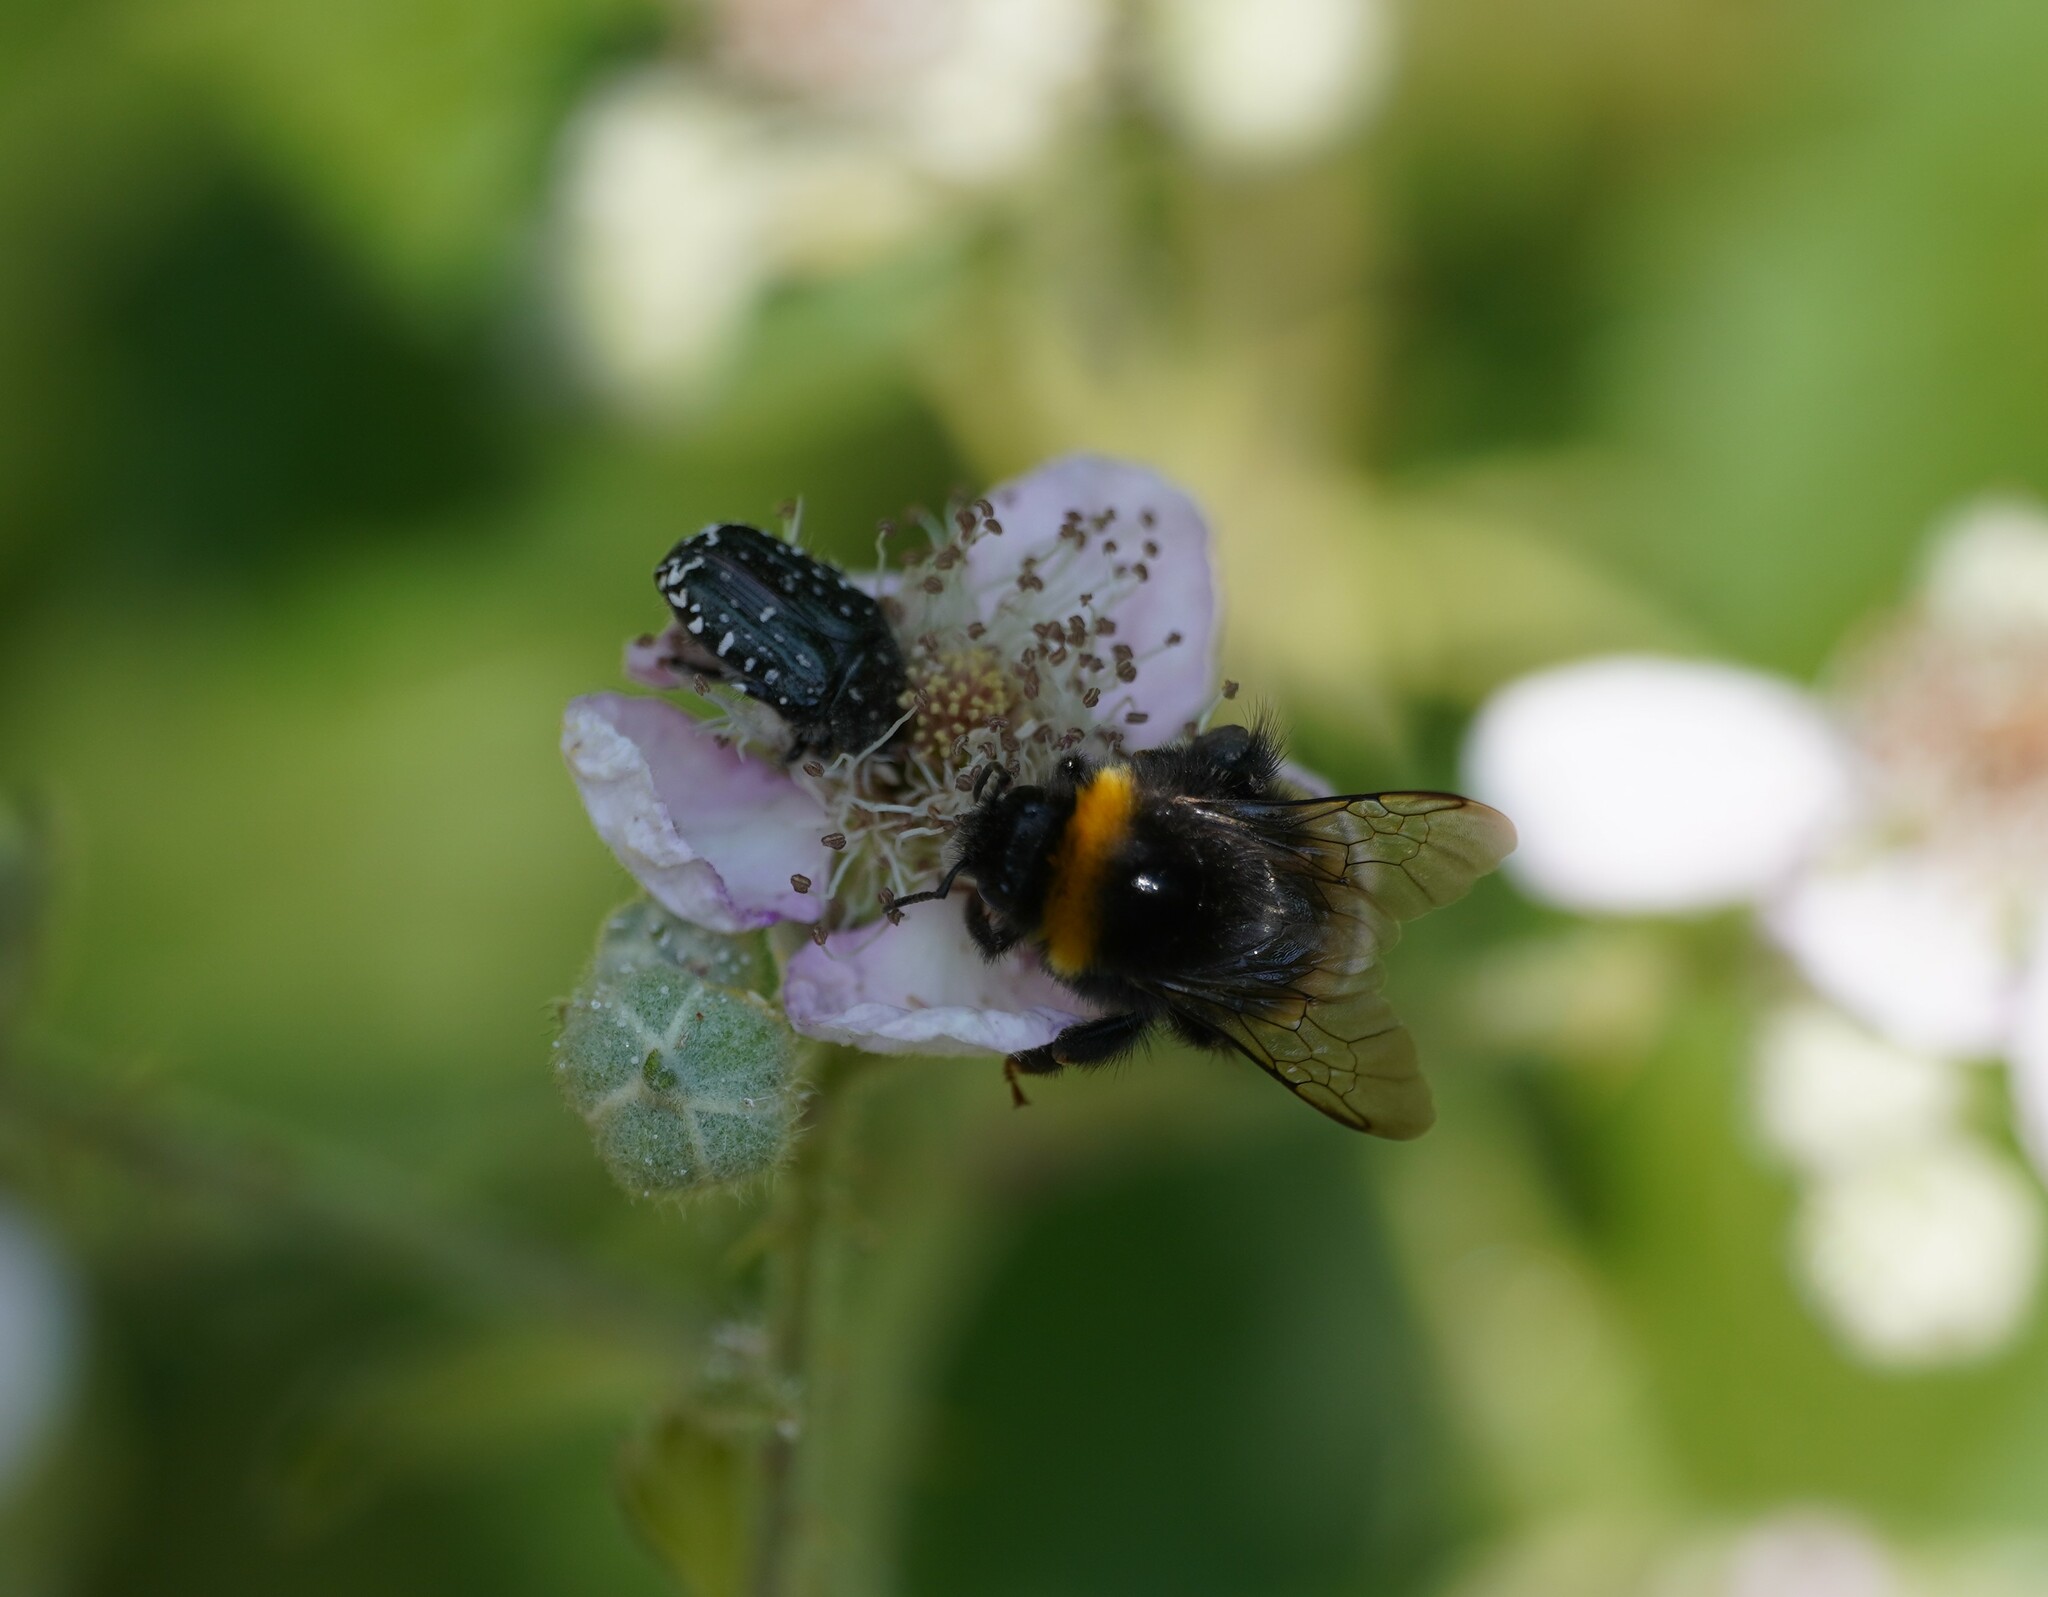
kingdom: Animalia
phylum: Arthropoda
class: Insecta
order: Hymenoptera
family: Apidae
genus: Bombus
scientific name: Bombus
